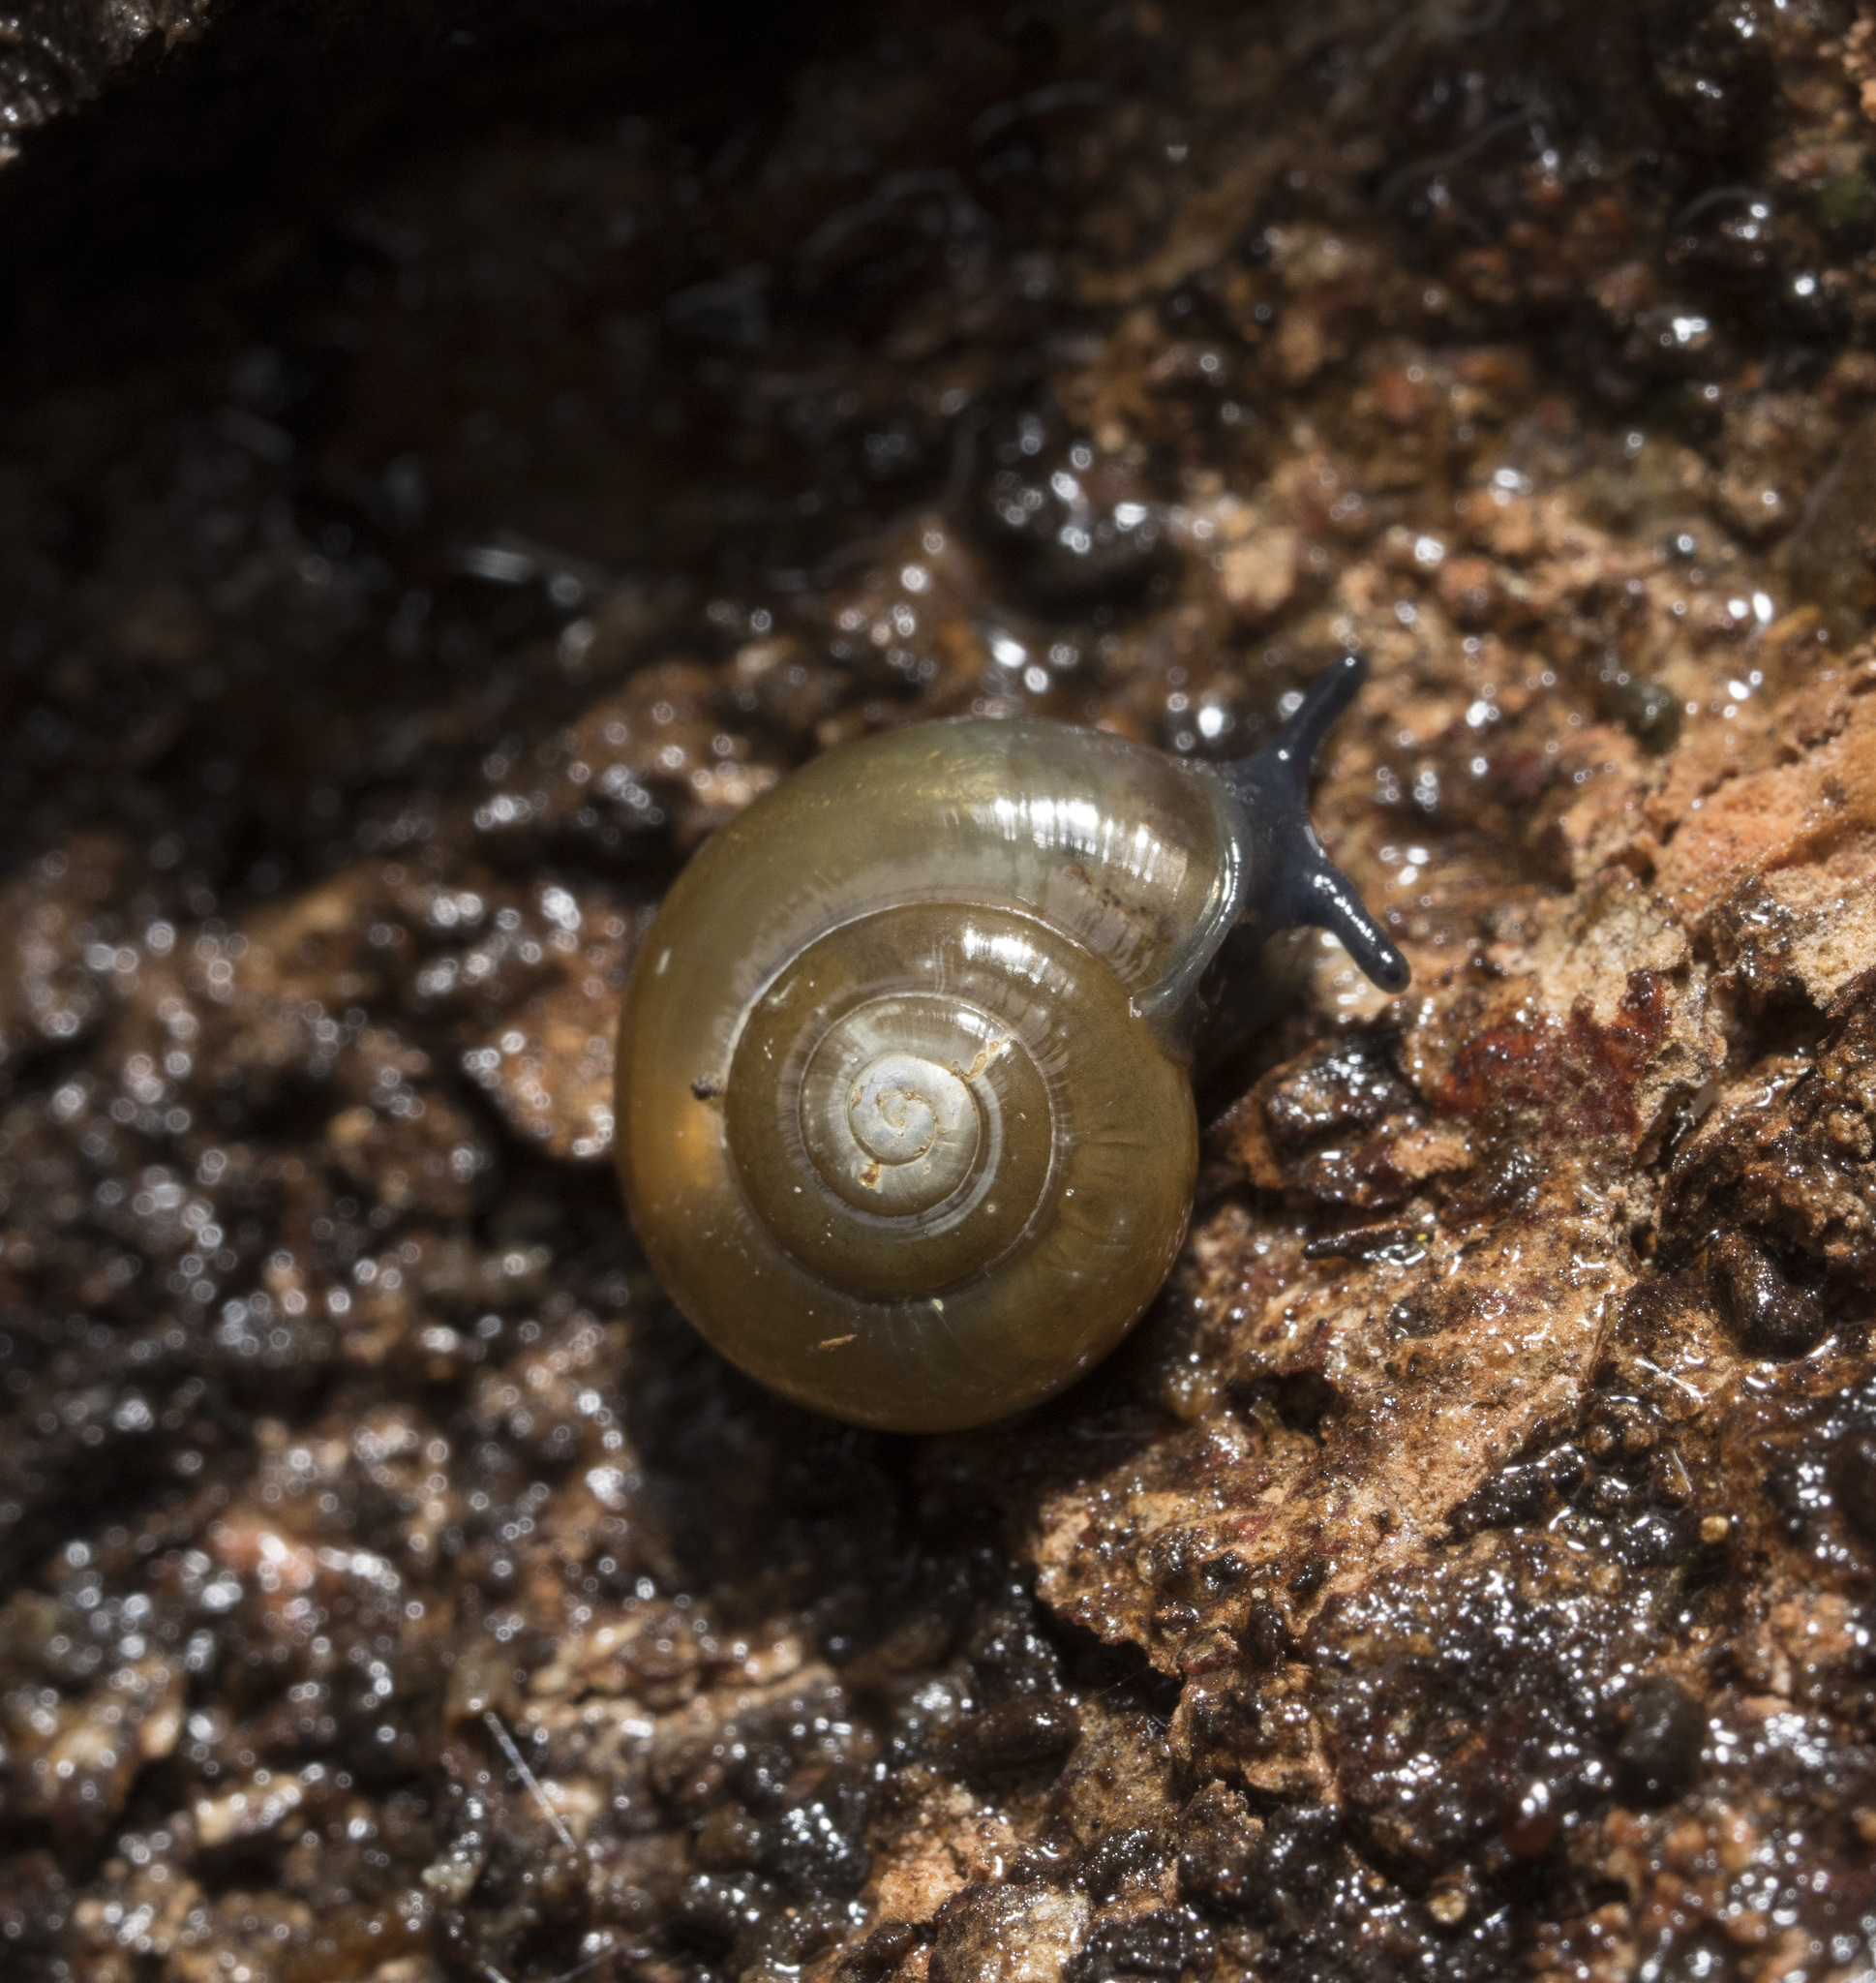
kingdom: Animalia
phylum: Mollusca
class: Gastropoda
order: Stylommatophora
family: Oxychilidae
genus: Oxychilus
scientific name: Oxychilus alliarius
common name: Garlic glass-snail
